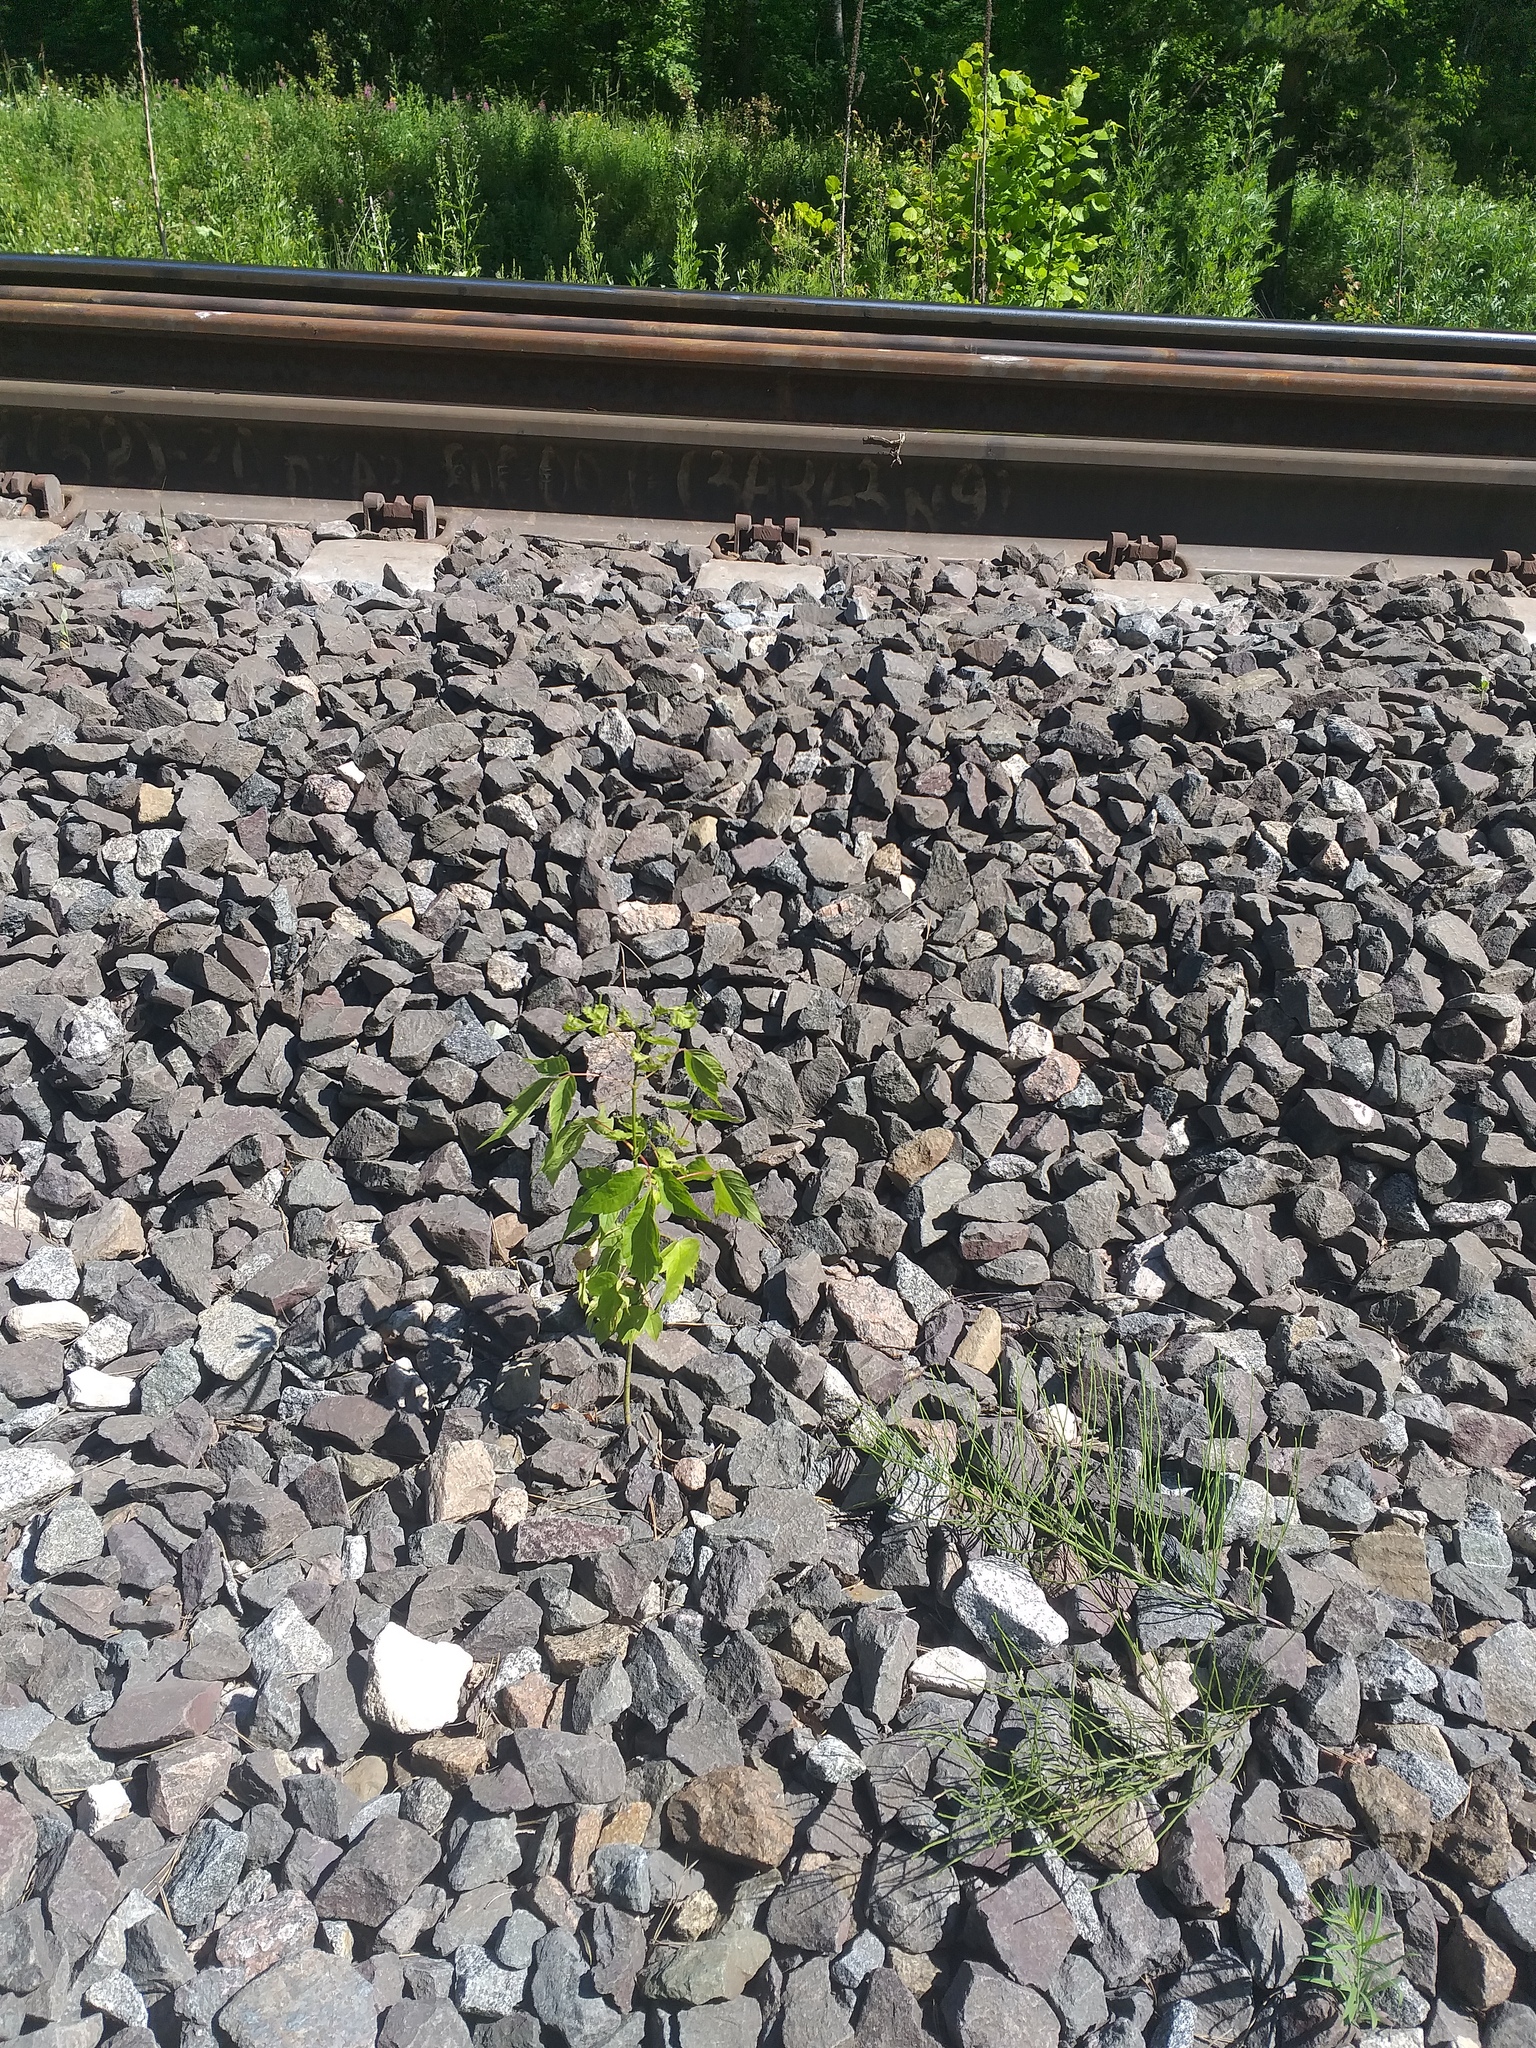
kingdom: Plantae
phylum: Tracheophyta
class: Magnoliopsida
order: Sapindales
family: Sapindaceae
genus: Acer
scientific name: Acer negundo
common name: Ashleaf maple
